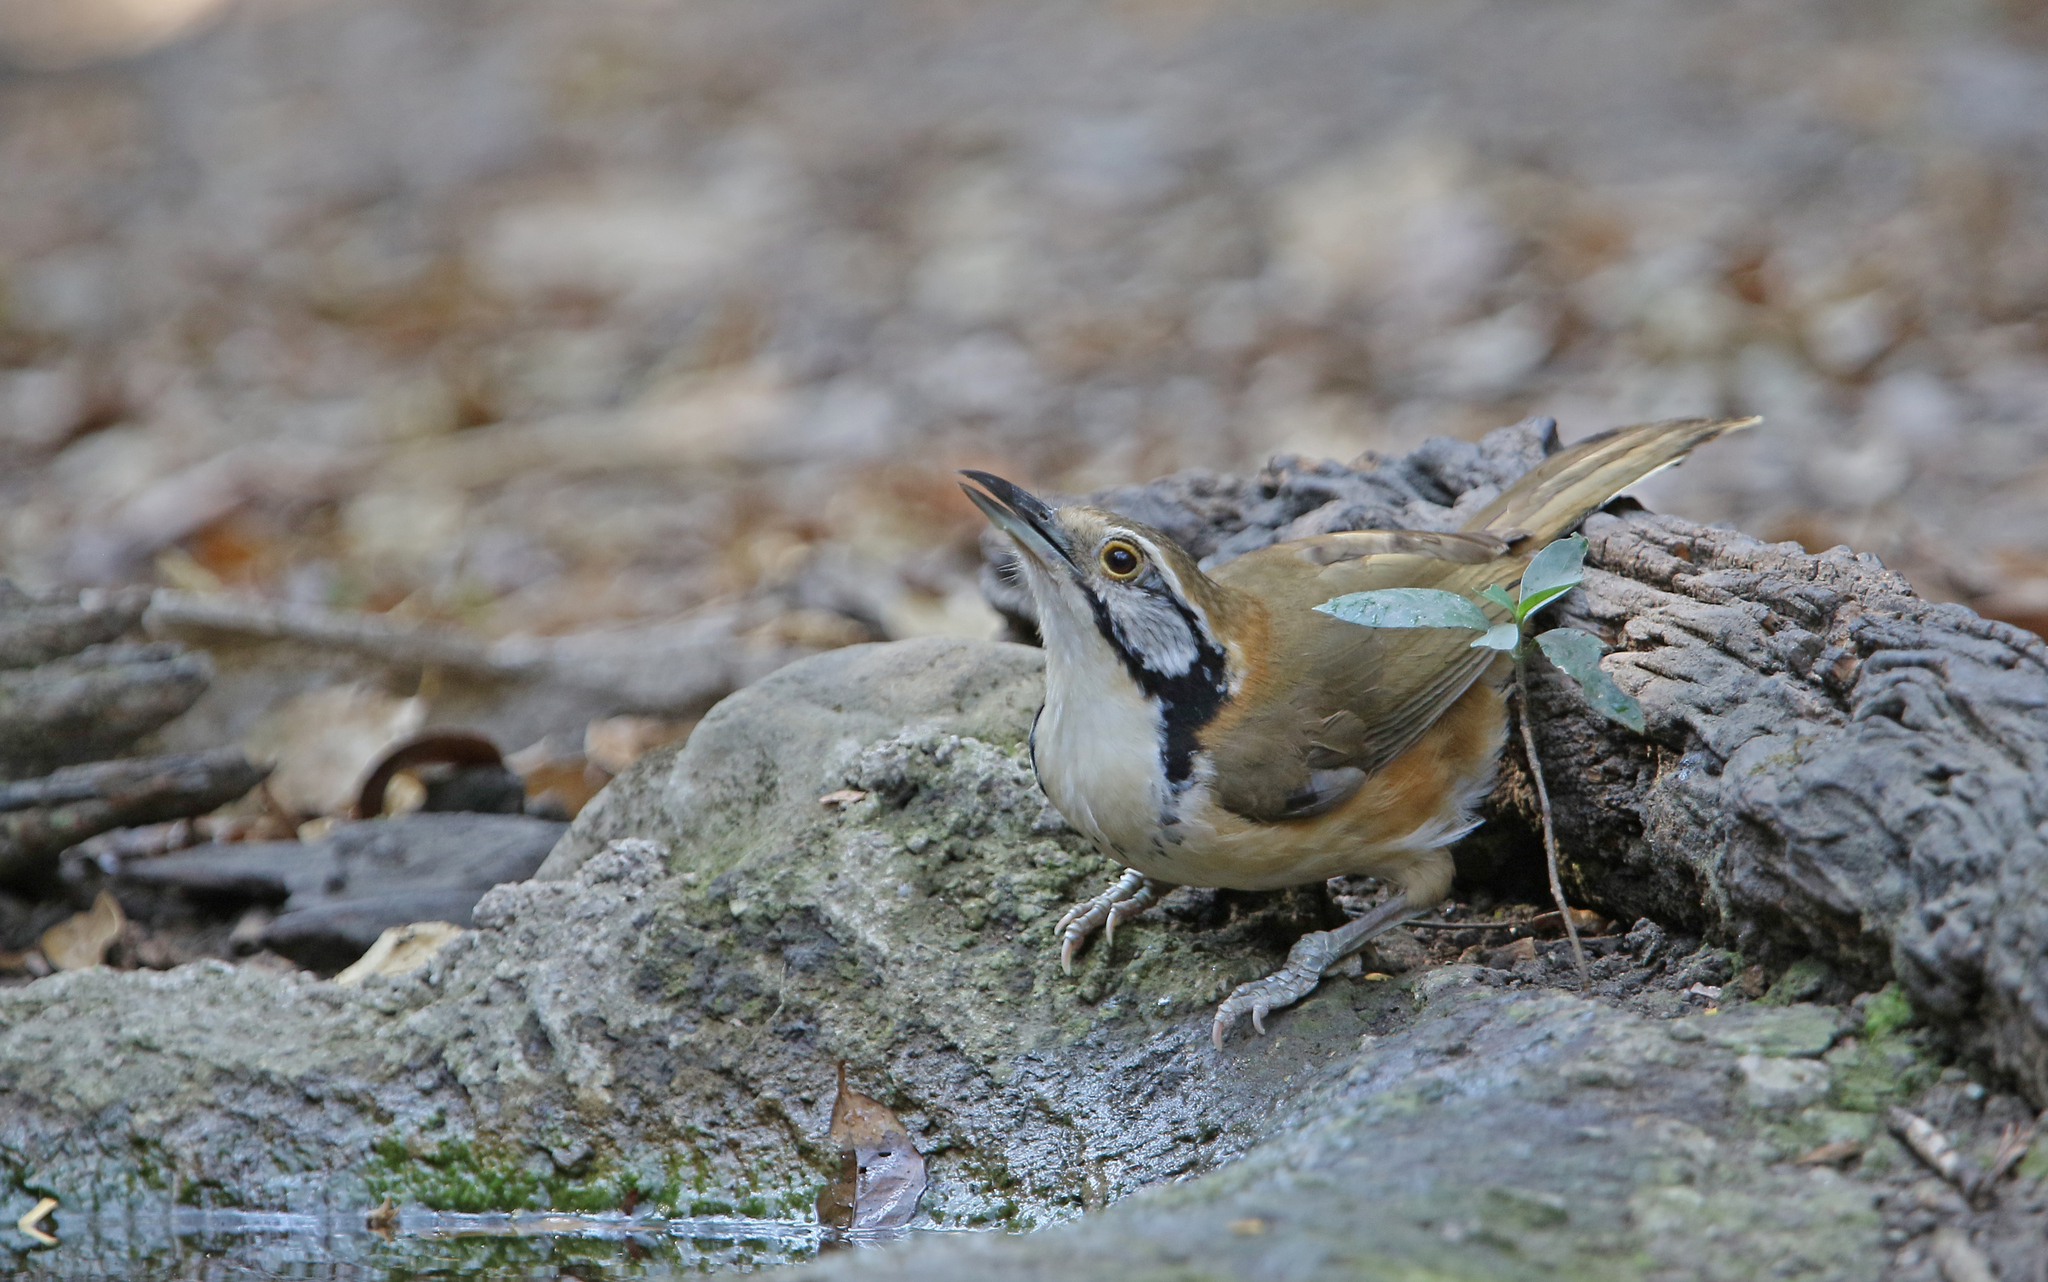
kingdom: Animalia
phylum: Chordata
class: Aves
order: Passeriformes
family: Leiothrichidae
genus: Garrulax
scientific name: Garrulax pectoralis
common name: Greater necklaced laughingthrush
